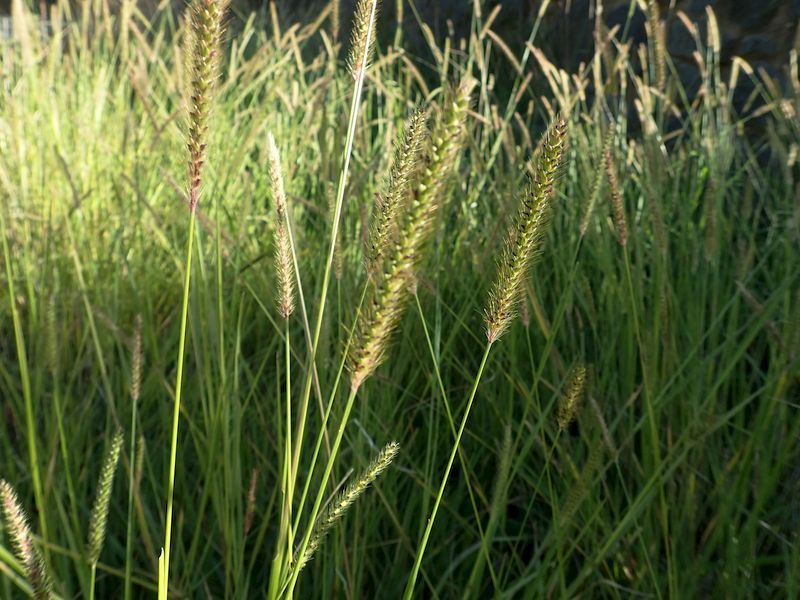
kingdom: Plantae
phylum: Tracheophyta
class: Liliopsida
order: Poales
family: Poaceae
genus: Setaria
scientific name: Setaria parviflora
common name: Knotroot bristle-grass
